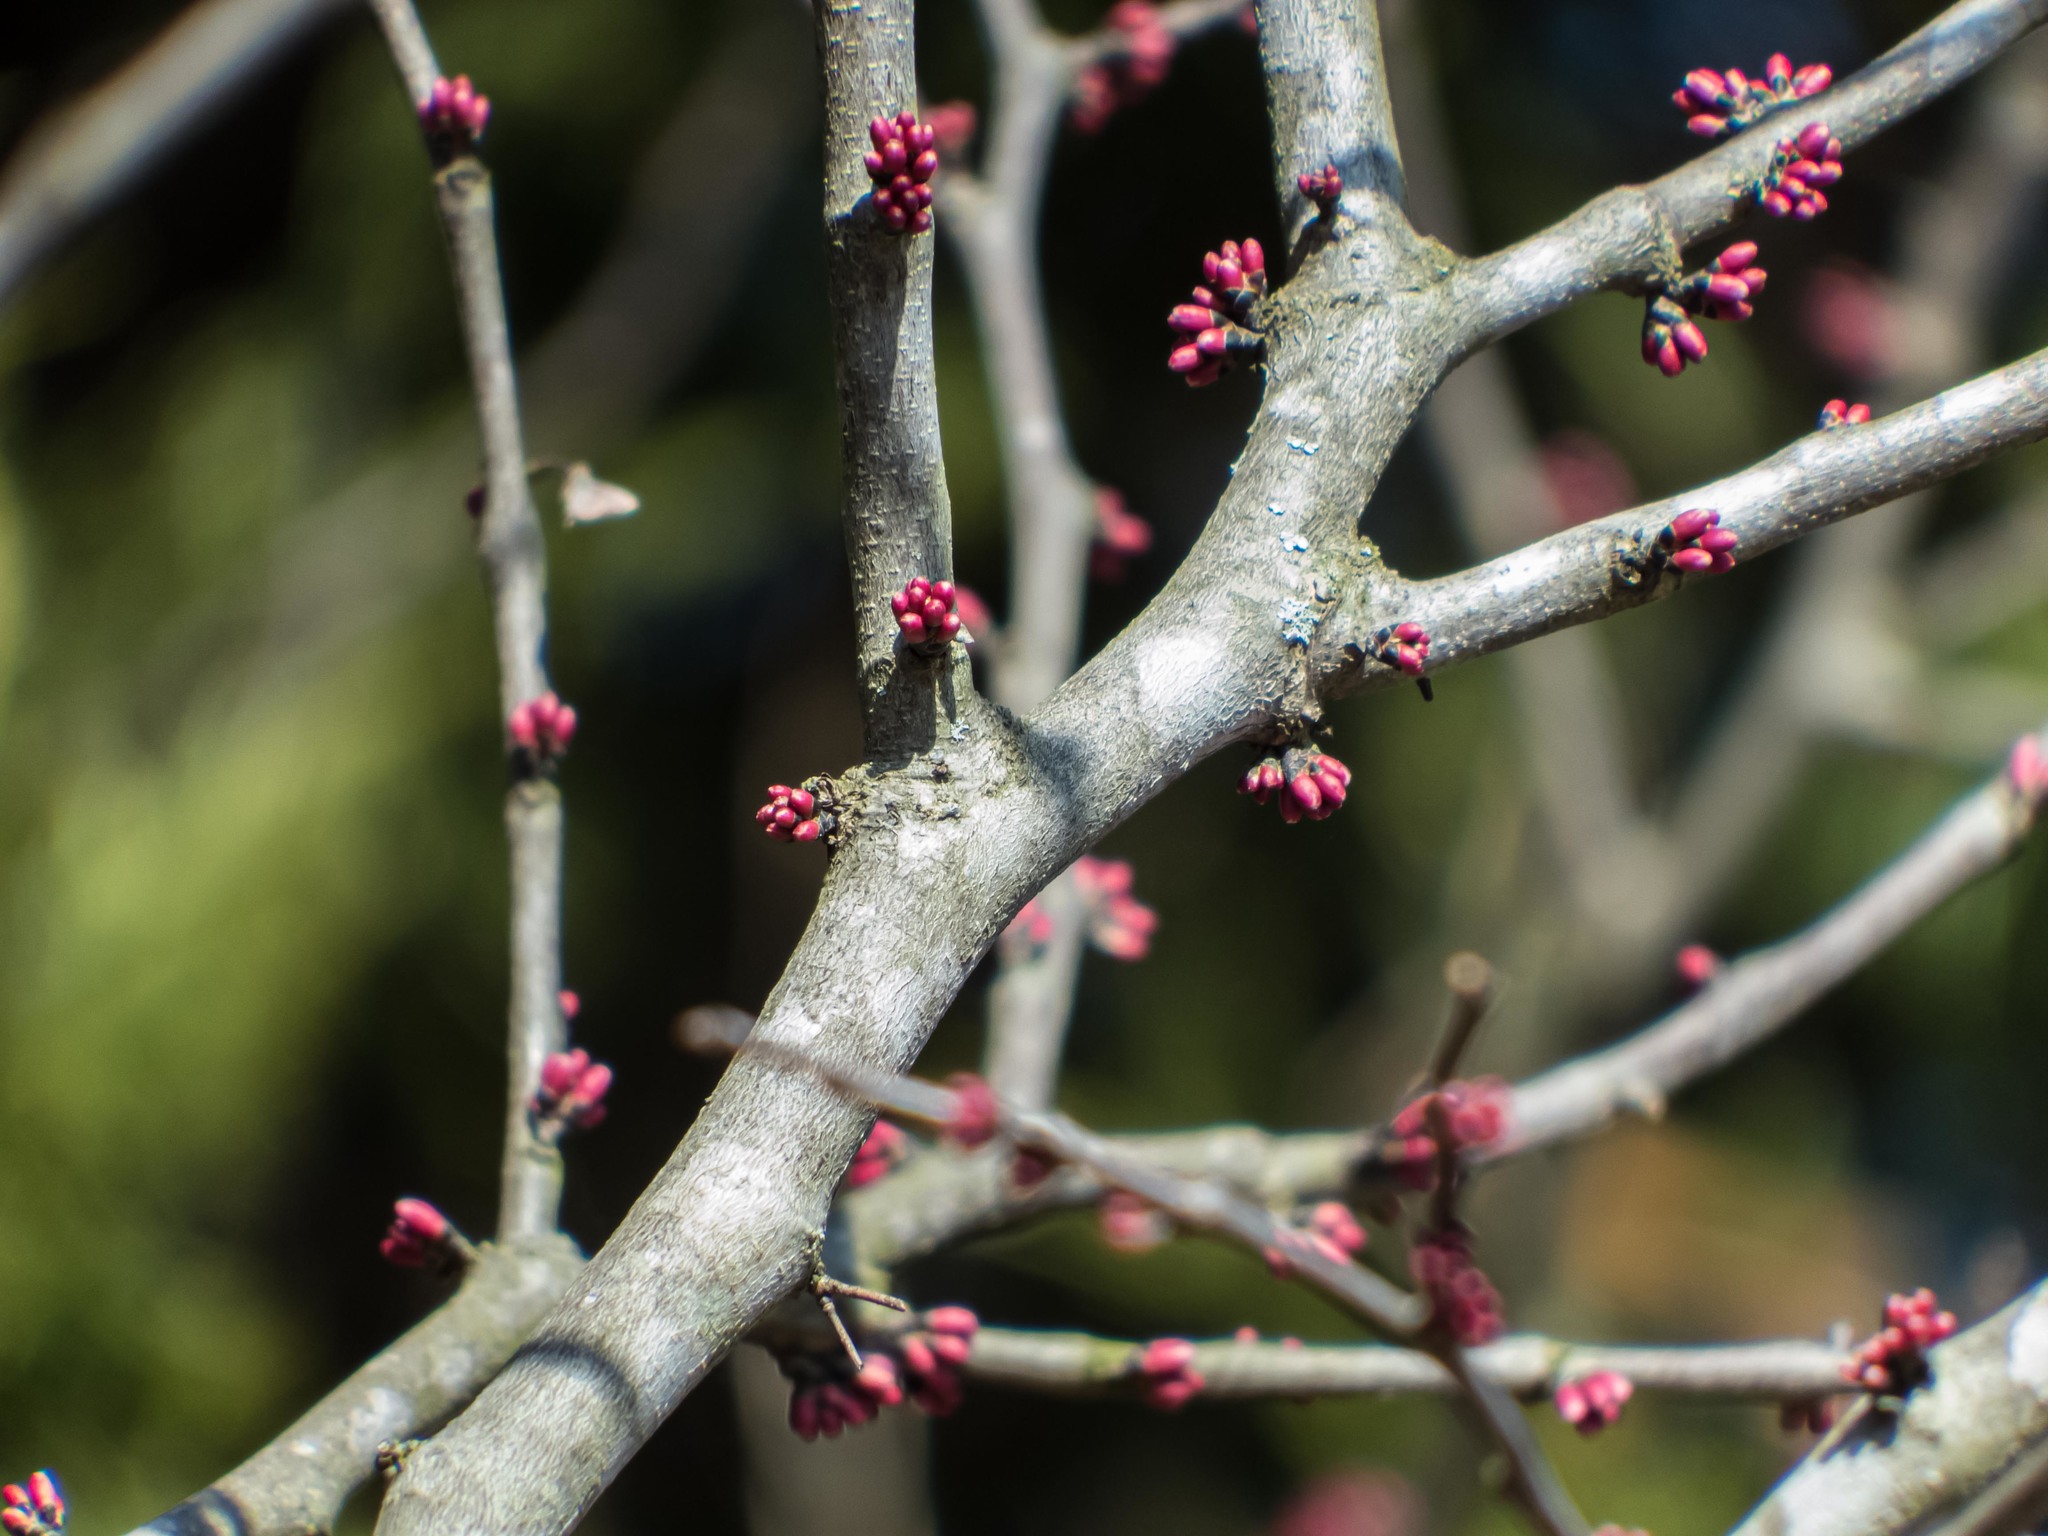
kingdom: Plantae
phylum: Tracheophyta
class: Magnoliopsida
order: Fabales
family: Fabaceae
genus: Cercis
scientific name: Cercis canadensis
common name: Eastern redbud
